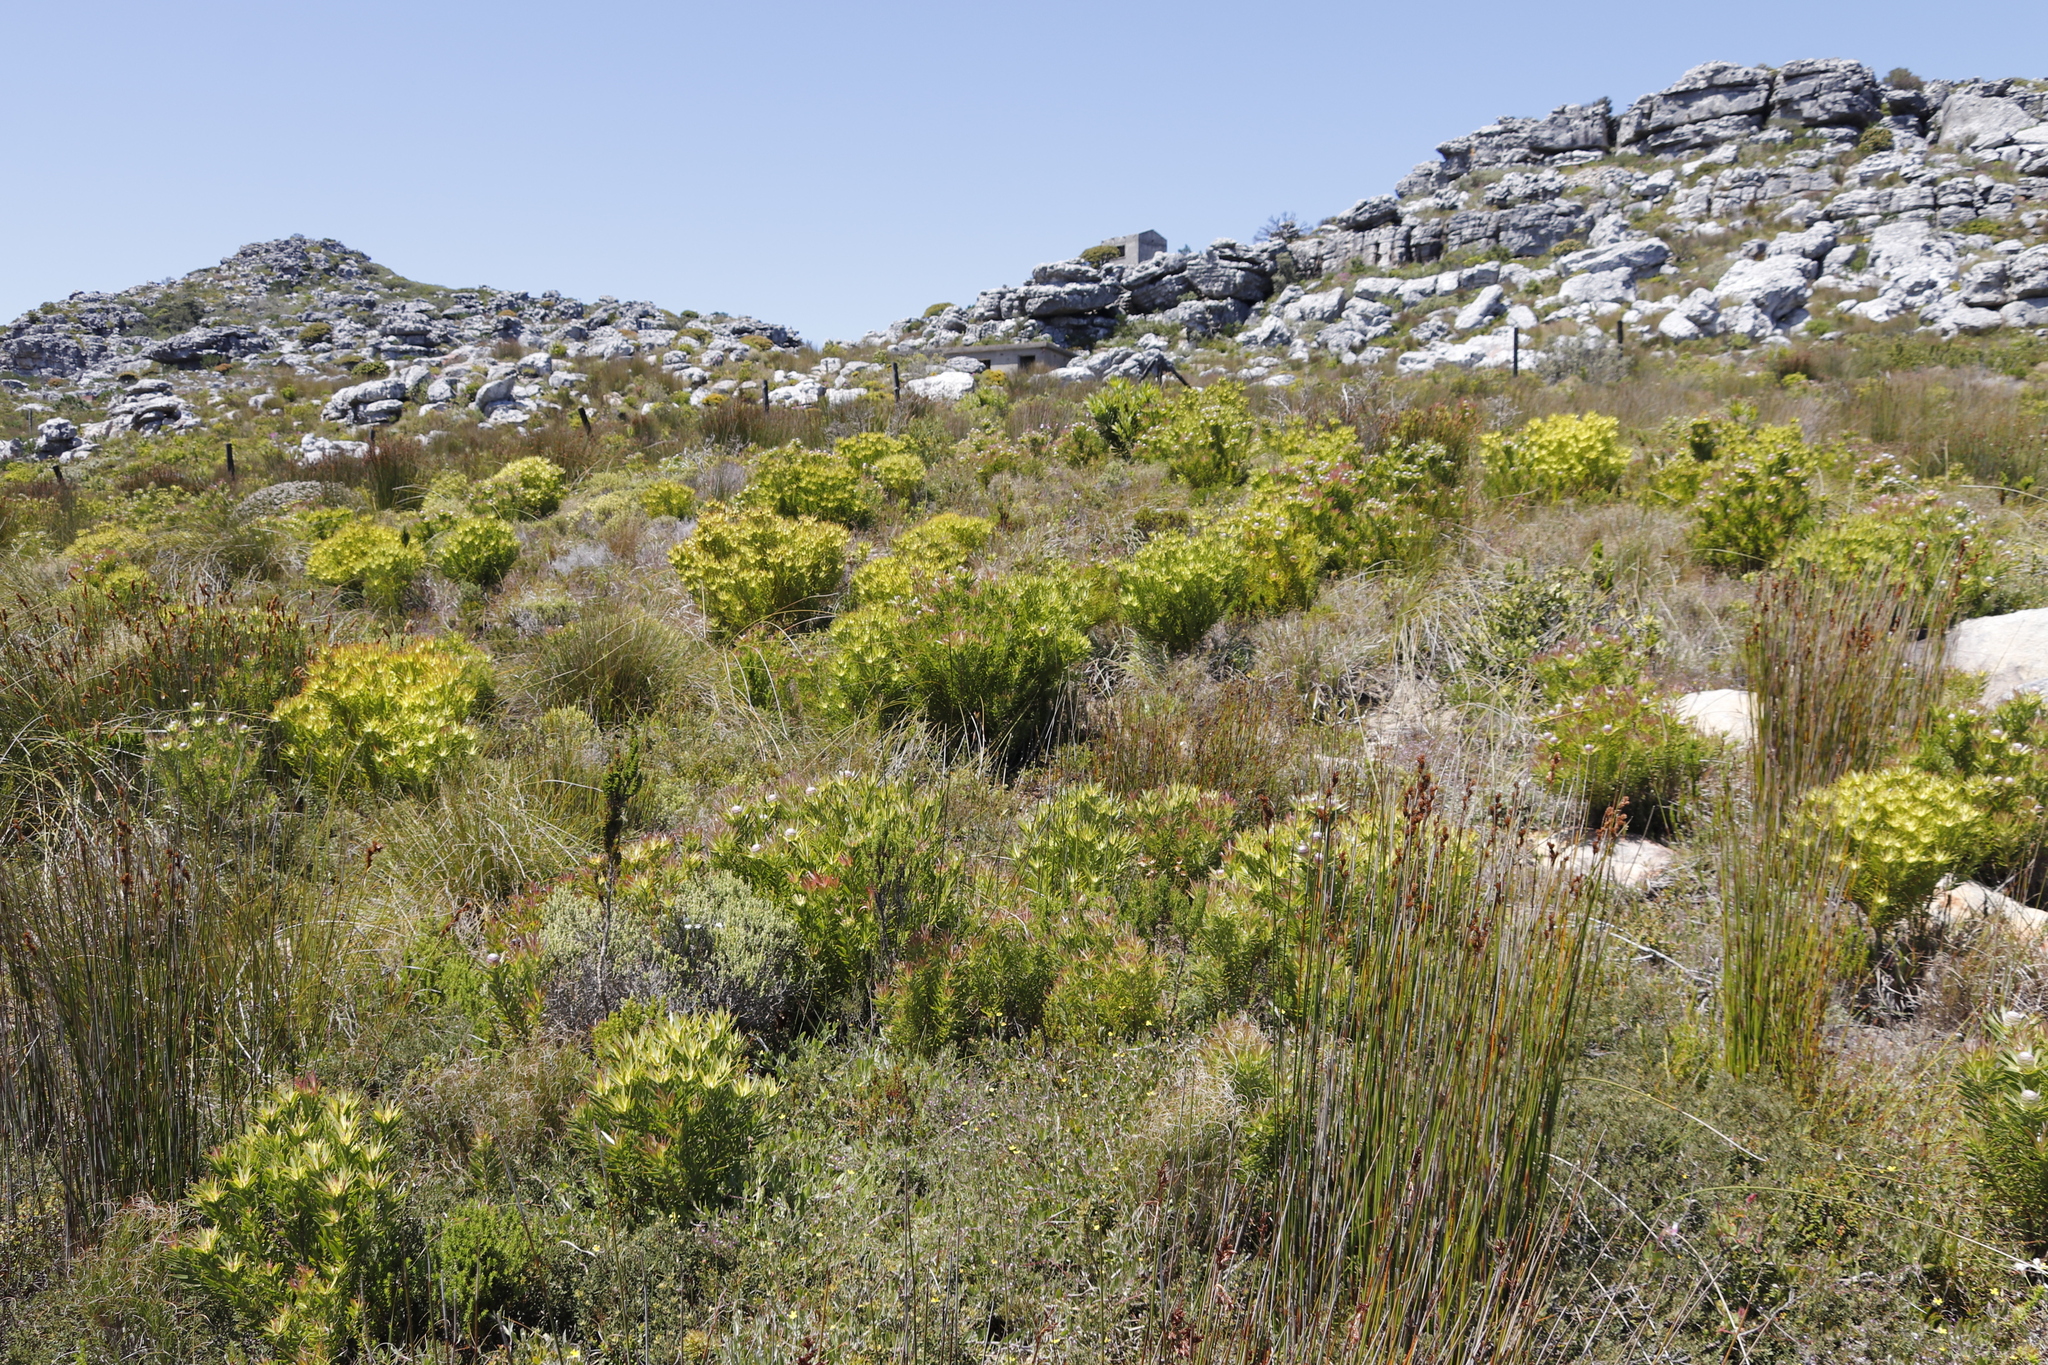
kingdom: Plantae
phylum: Tracheophyta
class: Magnoliopsida
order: Proteales
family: Proteaceae
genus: Leucadendron
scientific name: Leucadendron xanthoconus
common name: Sickle-leaf conebush
